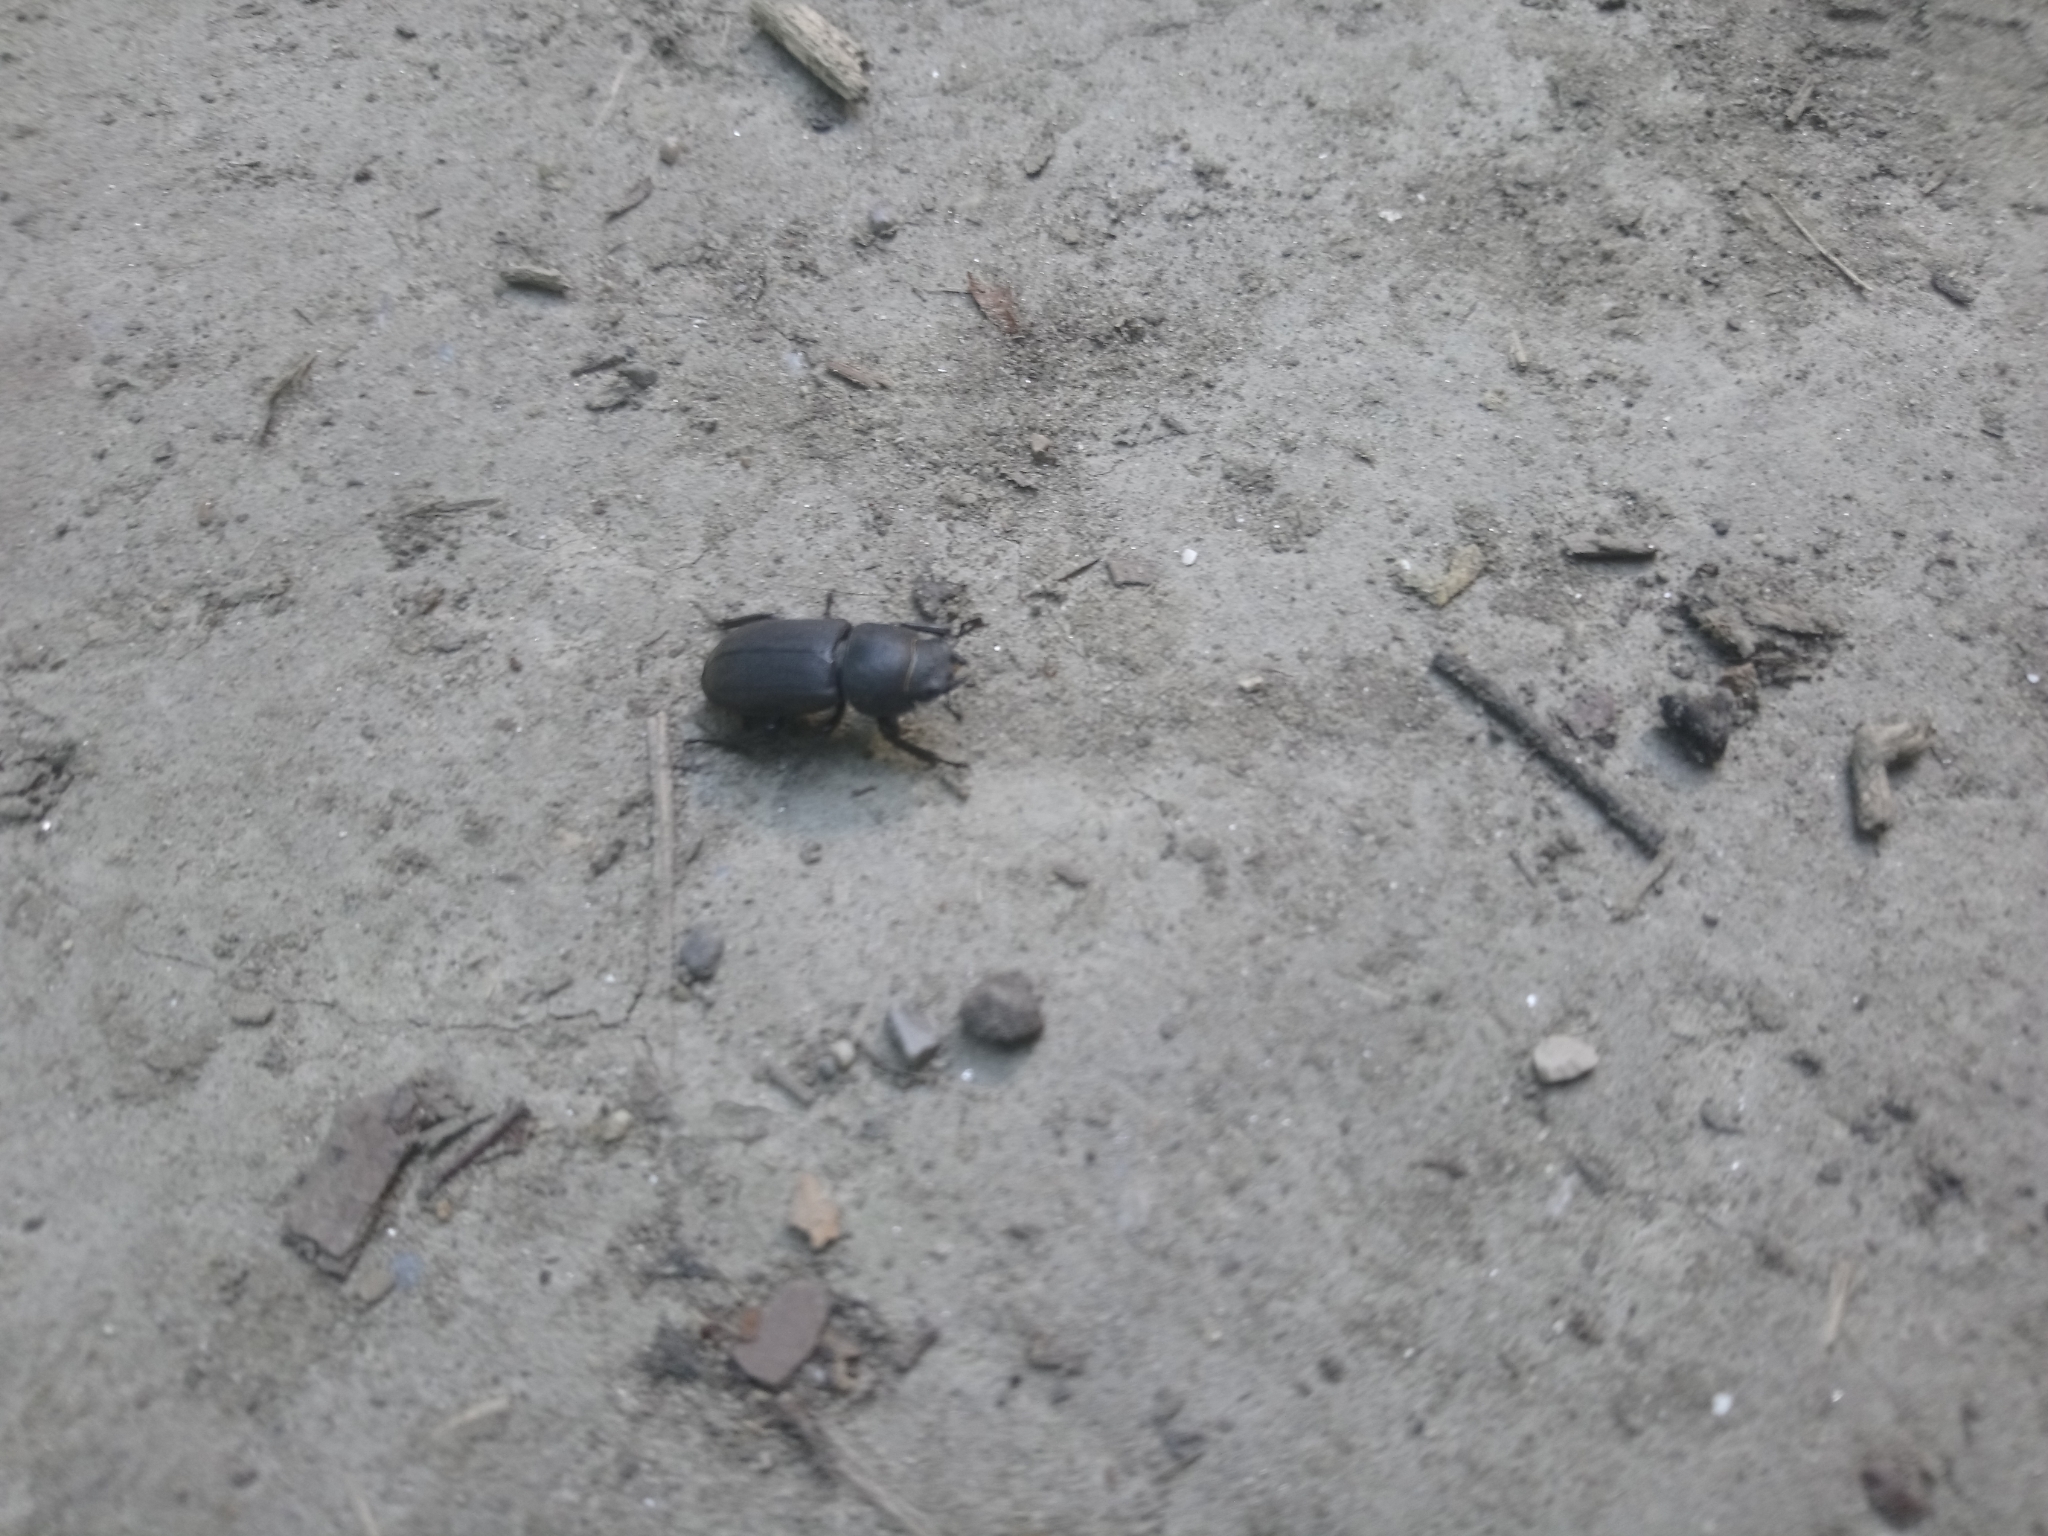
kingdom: Animalia
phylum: Arthropoda
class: Insecta
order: Coleoptera
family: Lucanidae
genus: Dorcus
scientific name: Dorcus parallelipipedus
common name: Lesser stag beetle
